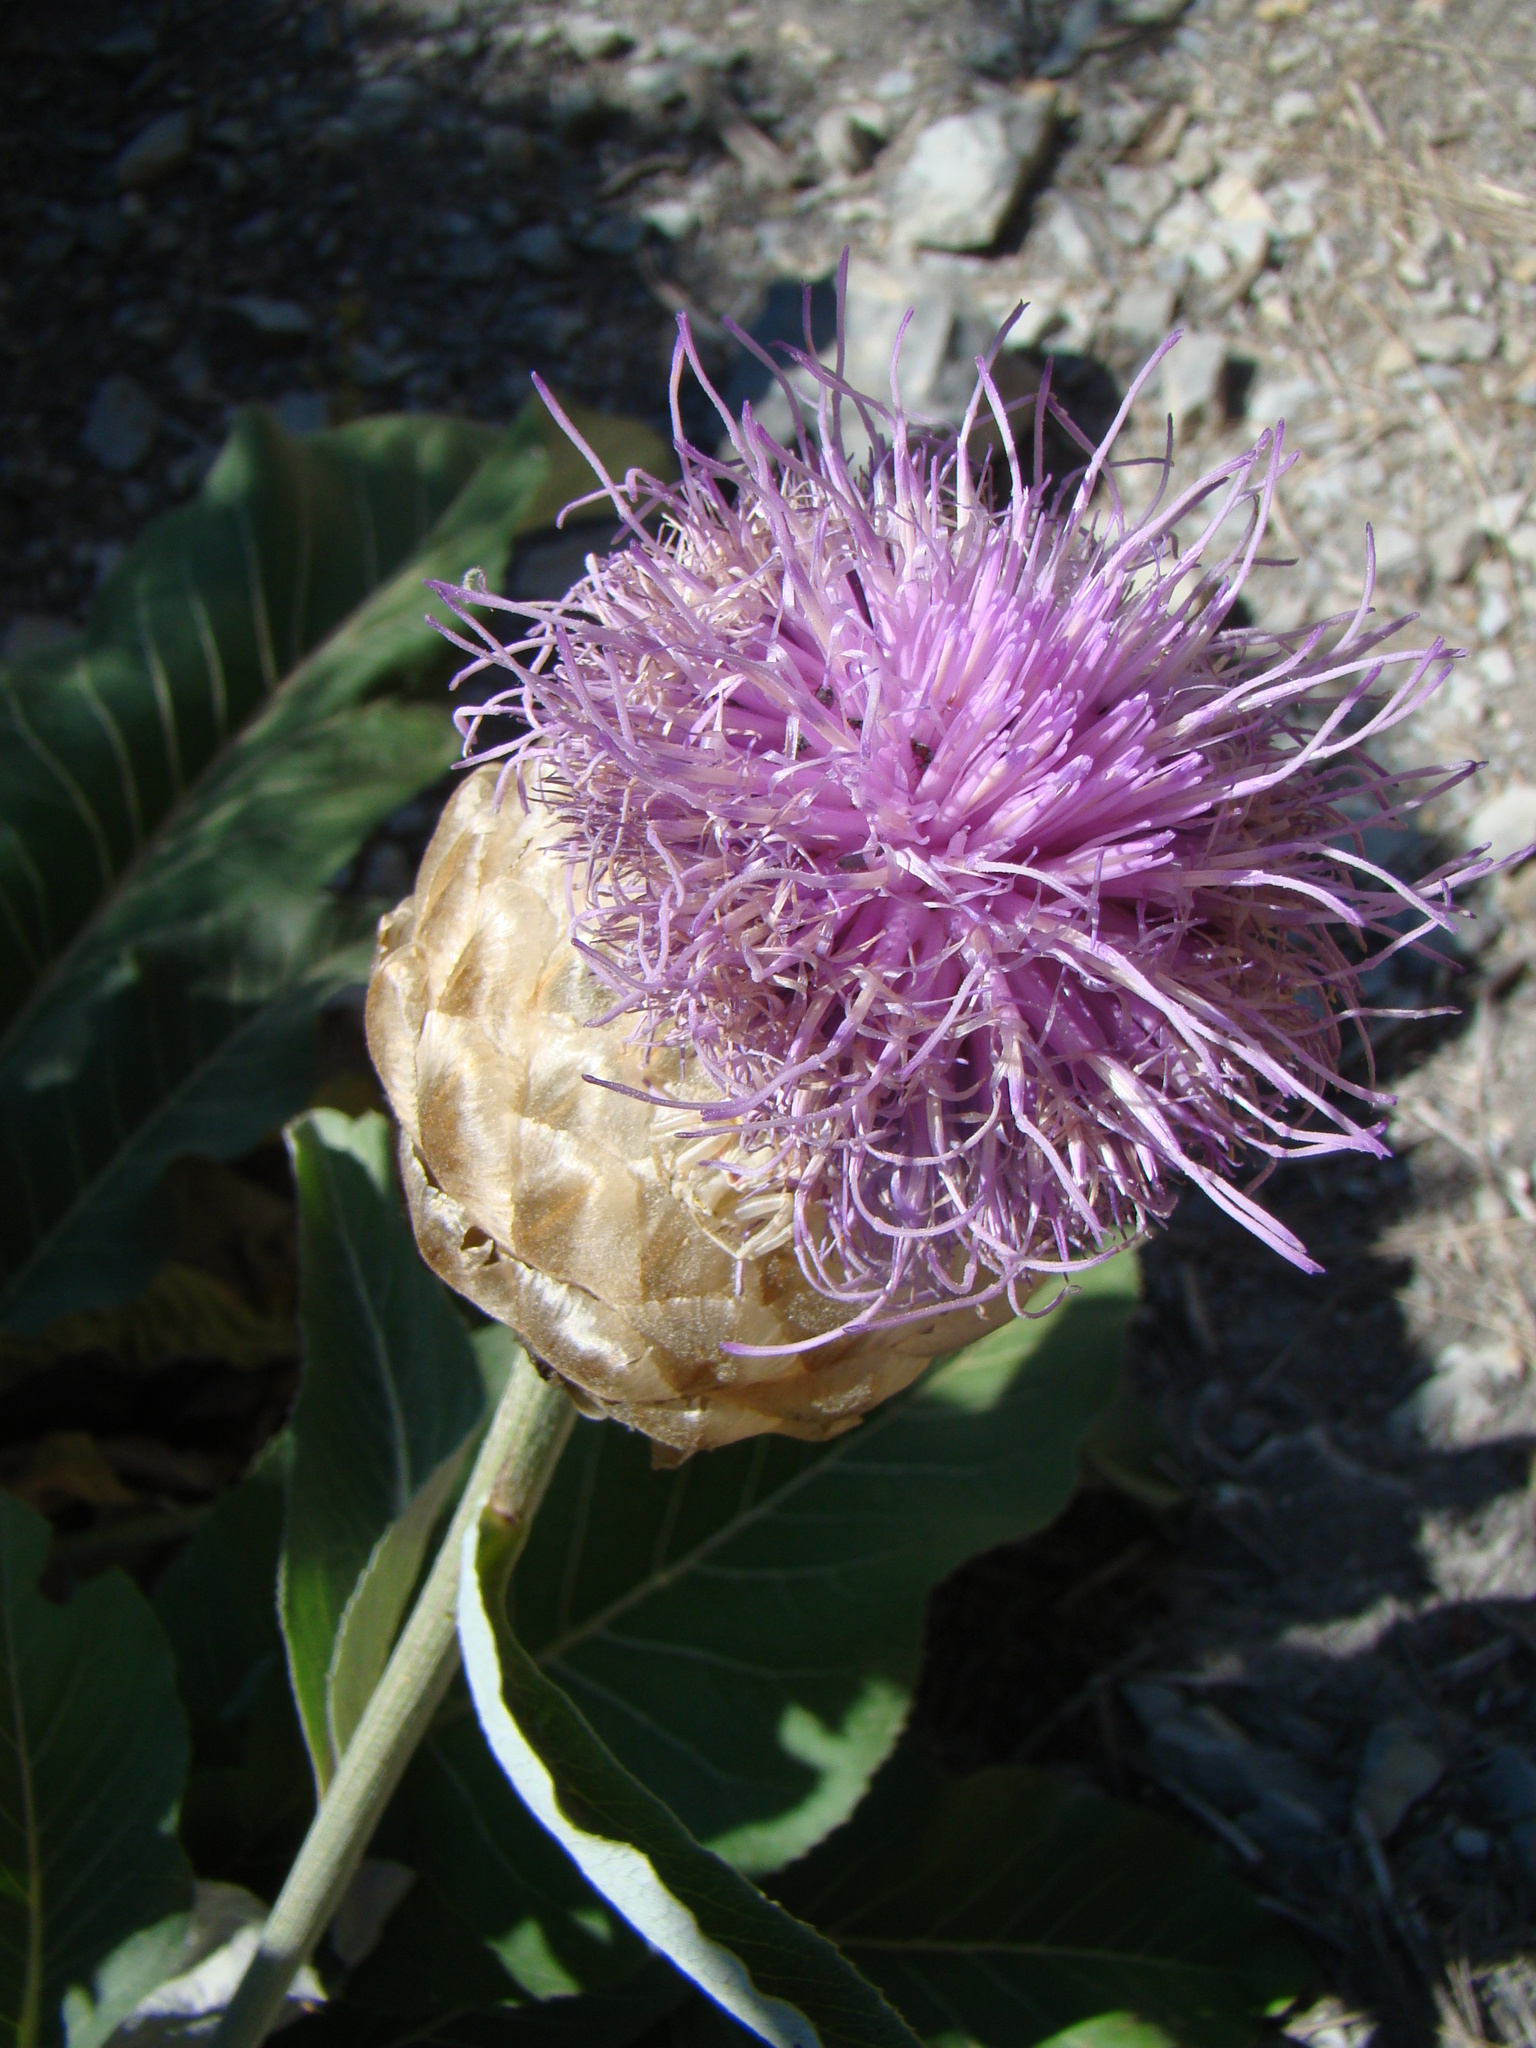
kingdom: Plantae
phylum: Tracheophyta
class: Magnoliopsida
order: Asterales
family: Asteraceae
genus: Leuzea
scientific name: Leuzea rhapontica
